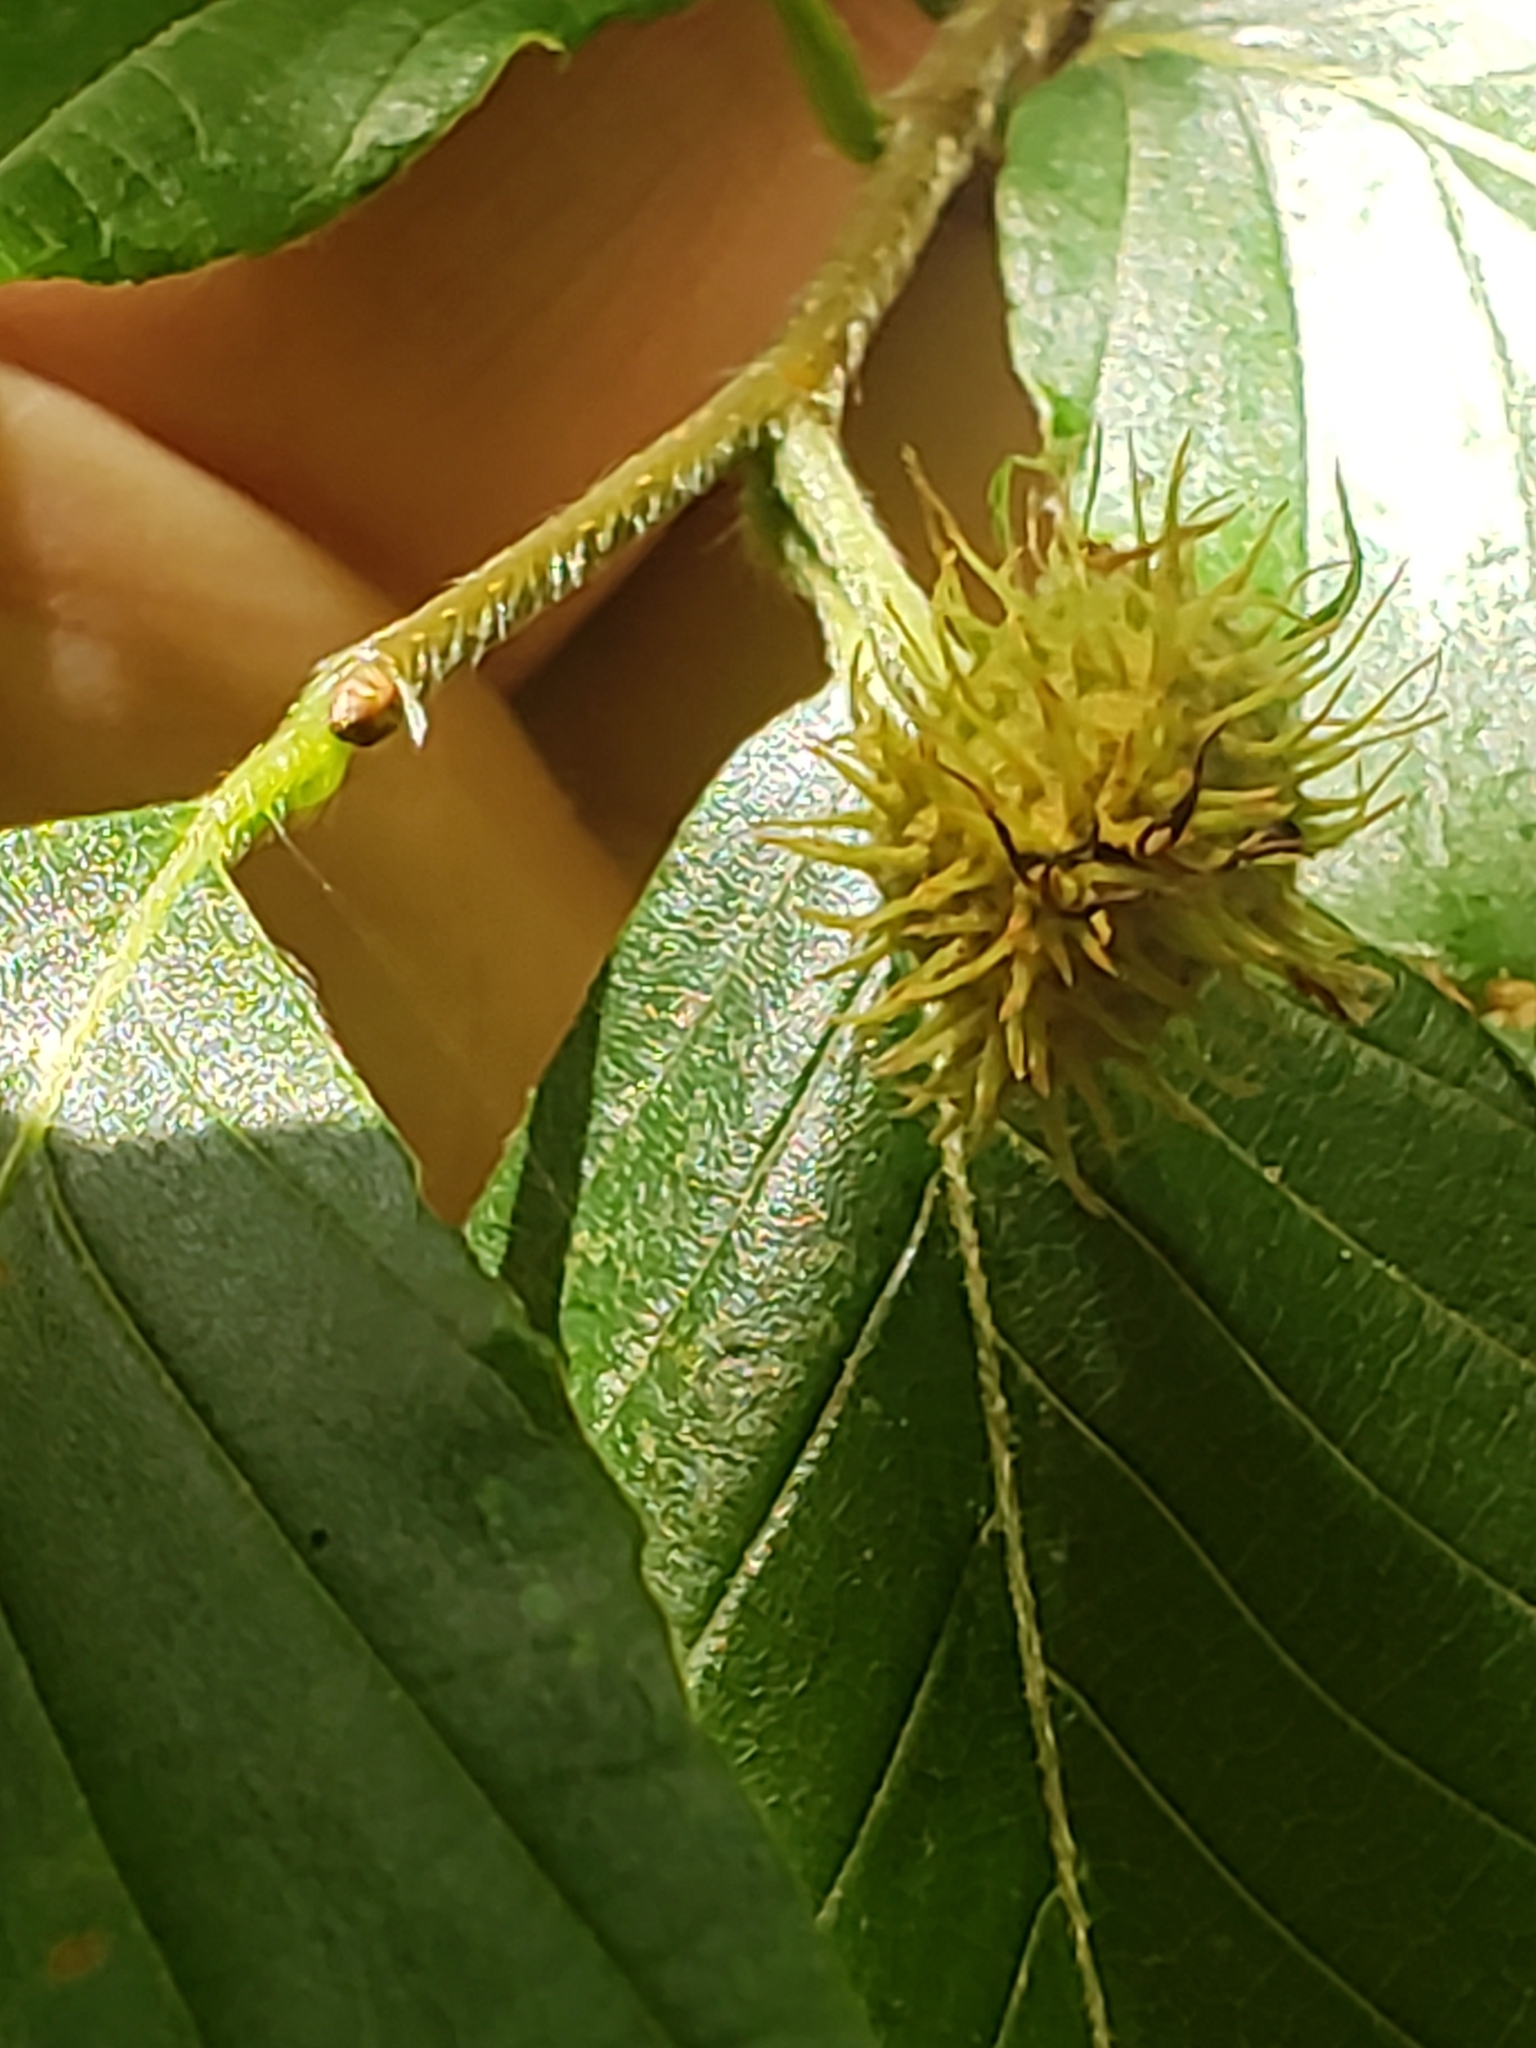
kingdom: Plantae
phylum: Tracheophyta
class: Magnoliopsida
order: Fagales
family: Fagaceae
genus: Fagus
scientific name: Fagus grandifolia
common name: American beech
